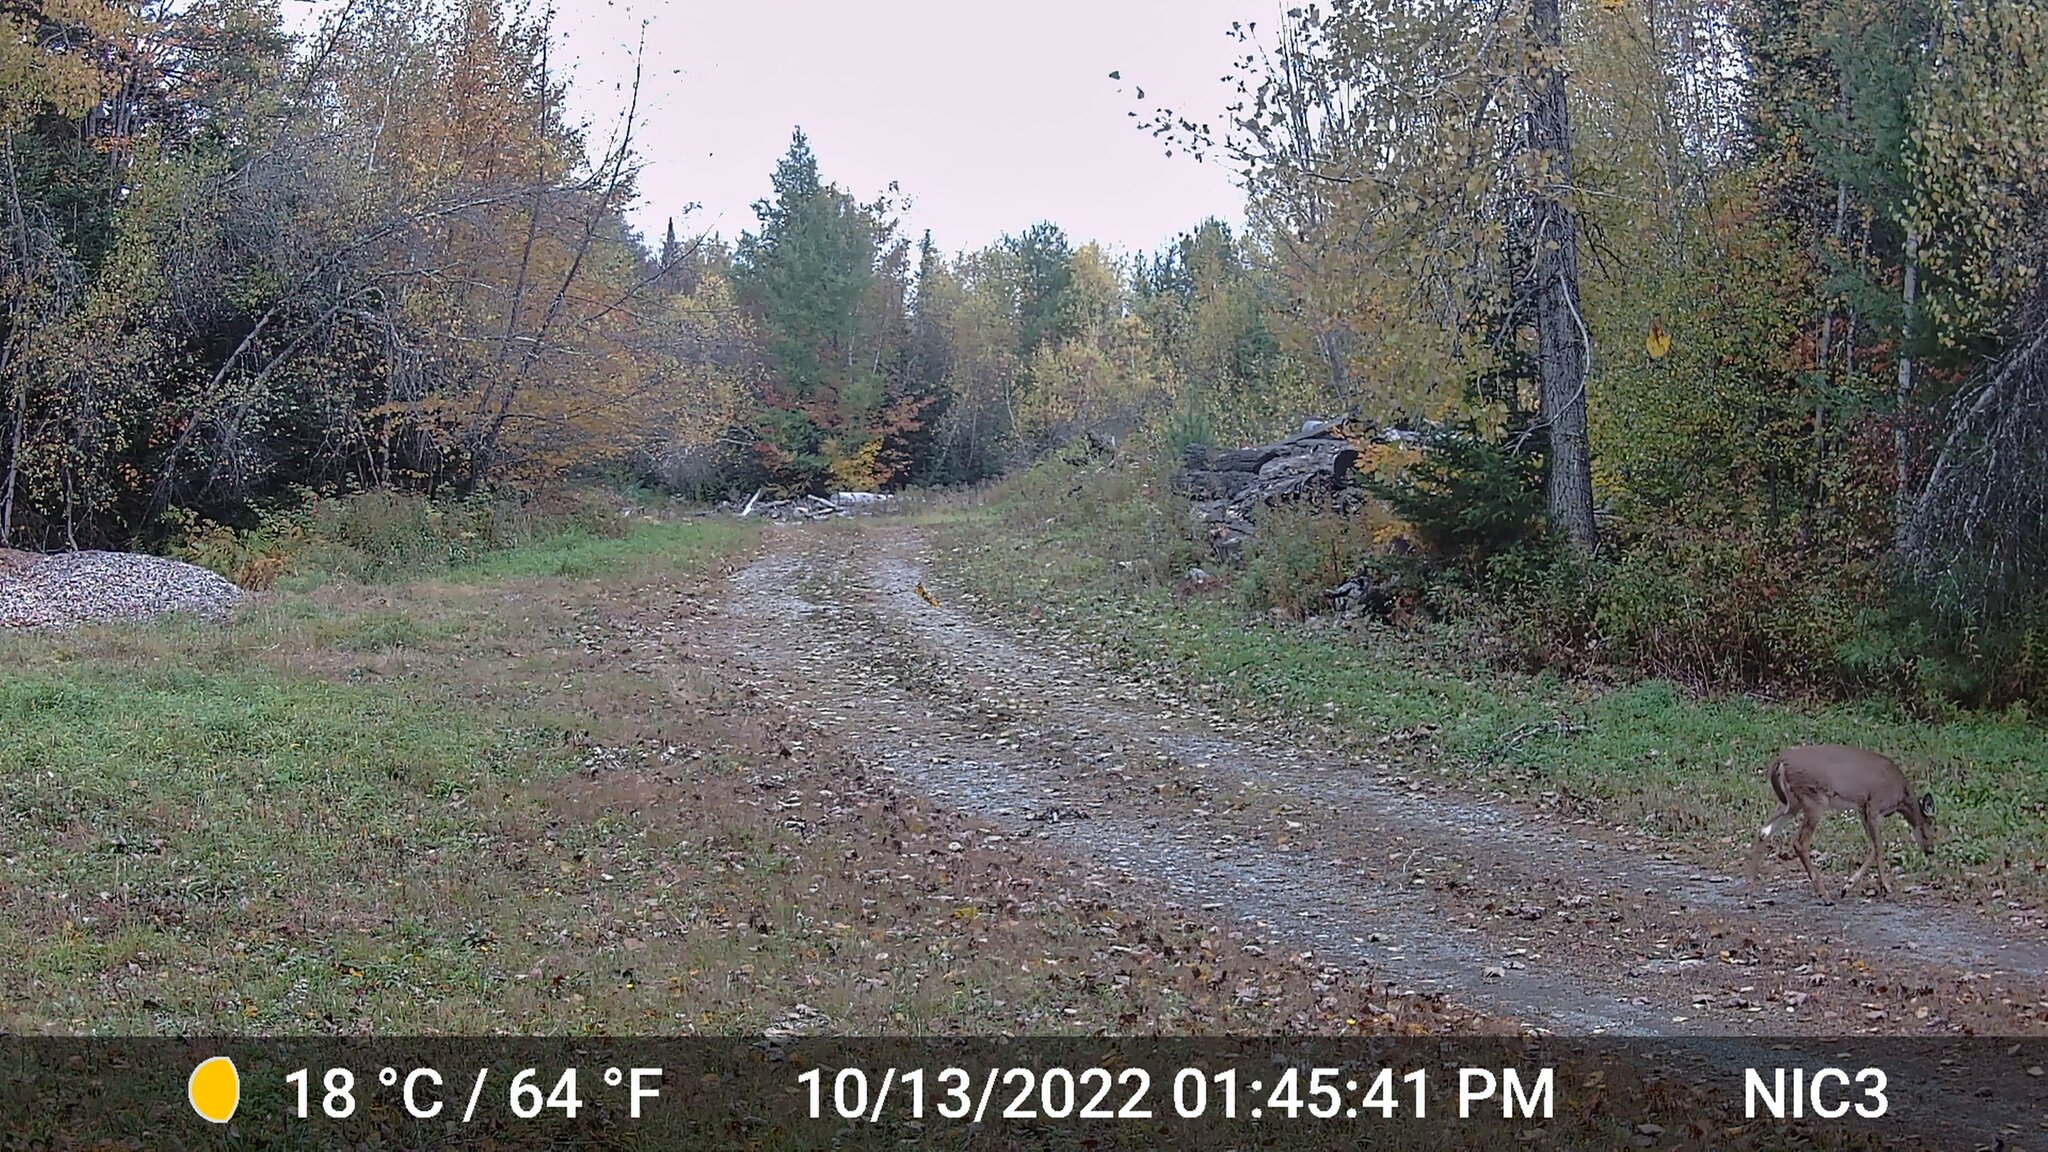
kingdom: Animalia
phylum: Chordata
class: Mammalia
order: Artiodactyla
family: Cervidae
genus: Odocoileus
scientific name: Odocoileus virginianus
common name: White-tailed deer
